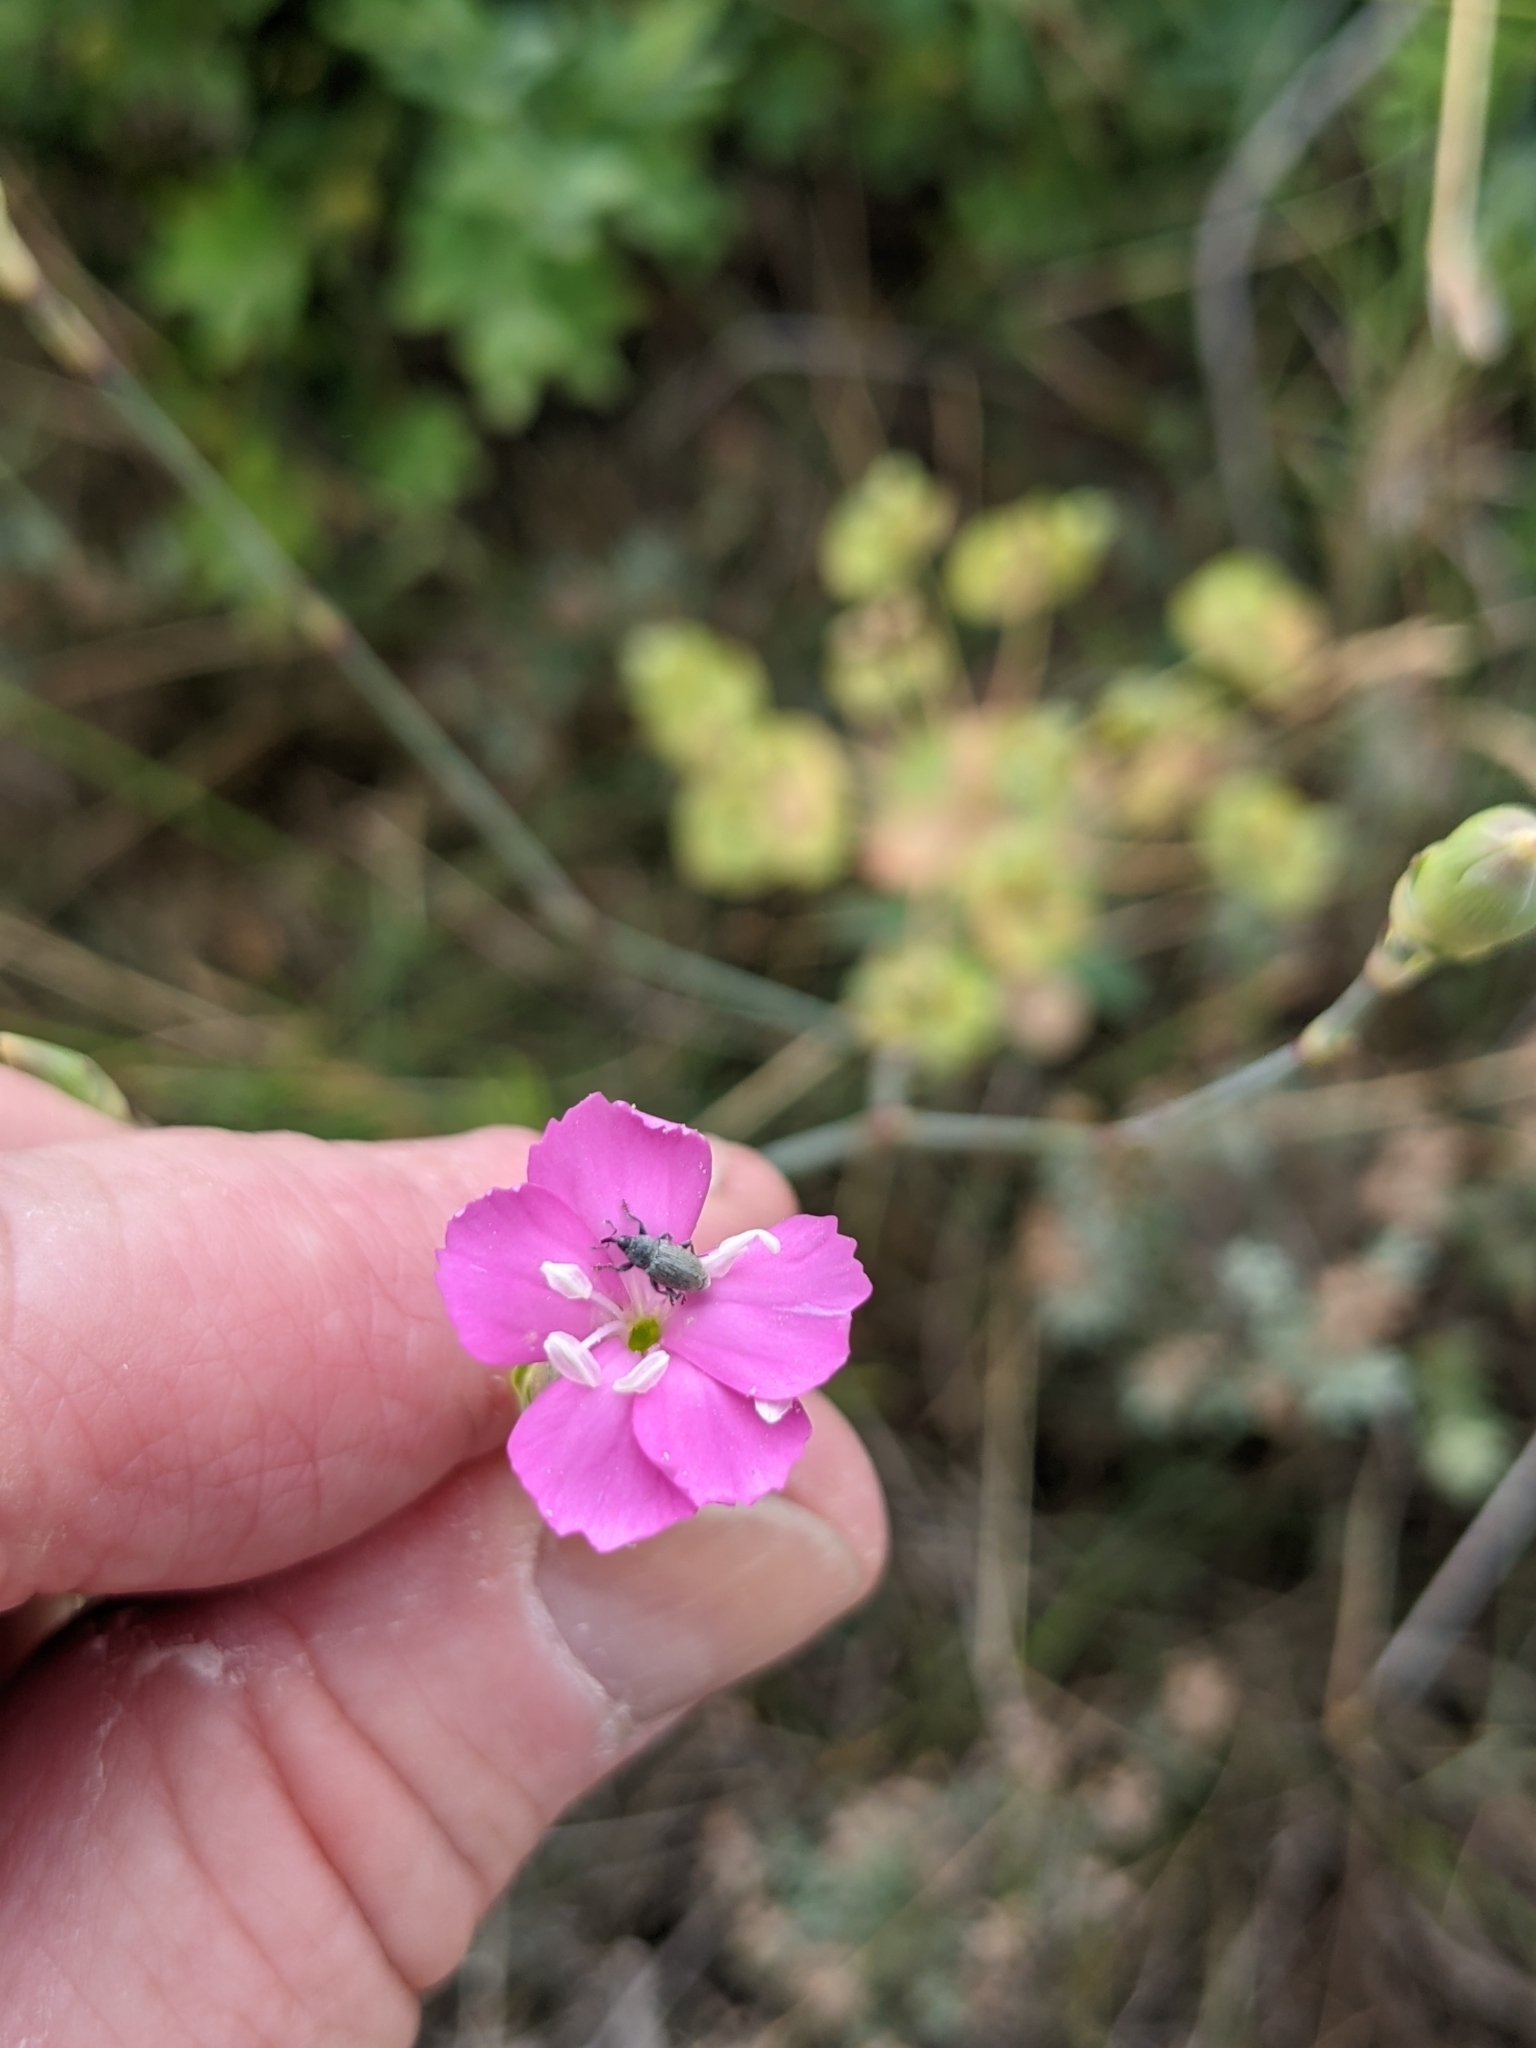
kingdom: Plantae
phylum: Tracheophyta
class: Magnoliopsida
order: Caryophyllales
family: Caryophyllaceae
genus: Dianthus
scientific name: Dianthus virgineus
